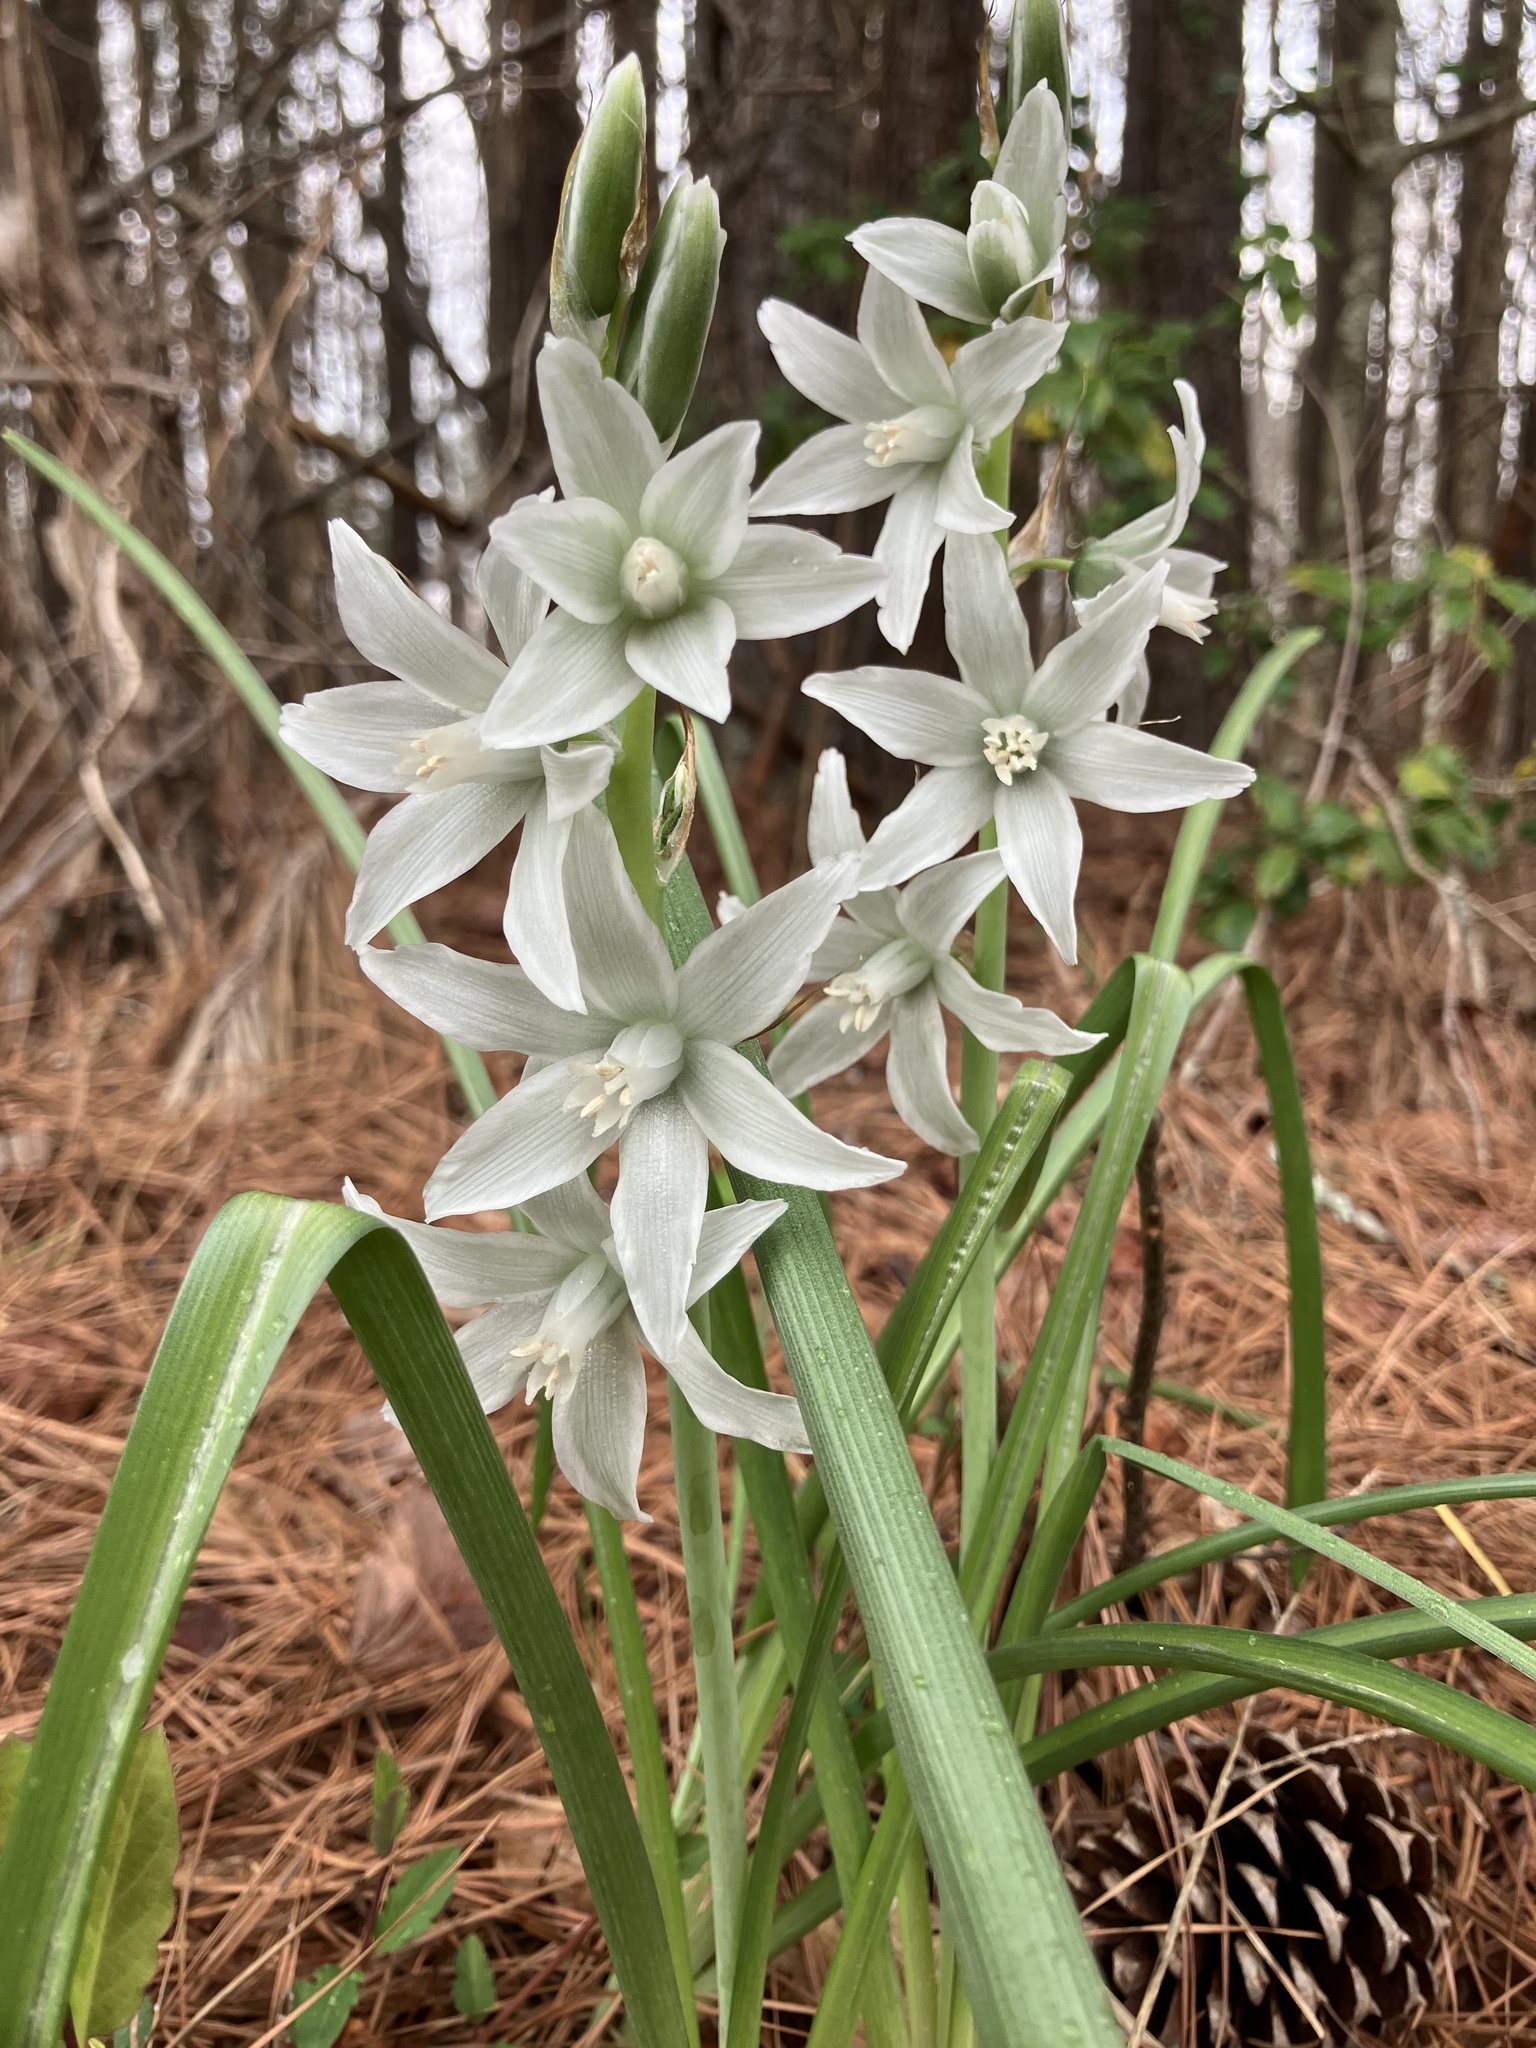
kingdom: Plantae
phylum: Tracheophyta
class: Liliopsida
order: Asparagales
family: Asparagaceae
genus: Ornithogalum
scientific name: Ornithogalum nutans
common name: Drooping star-of-bethlehem
